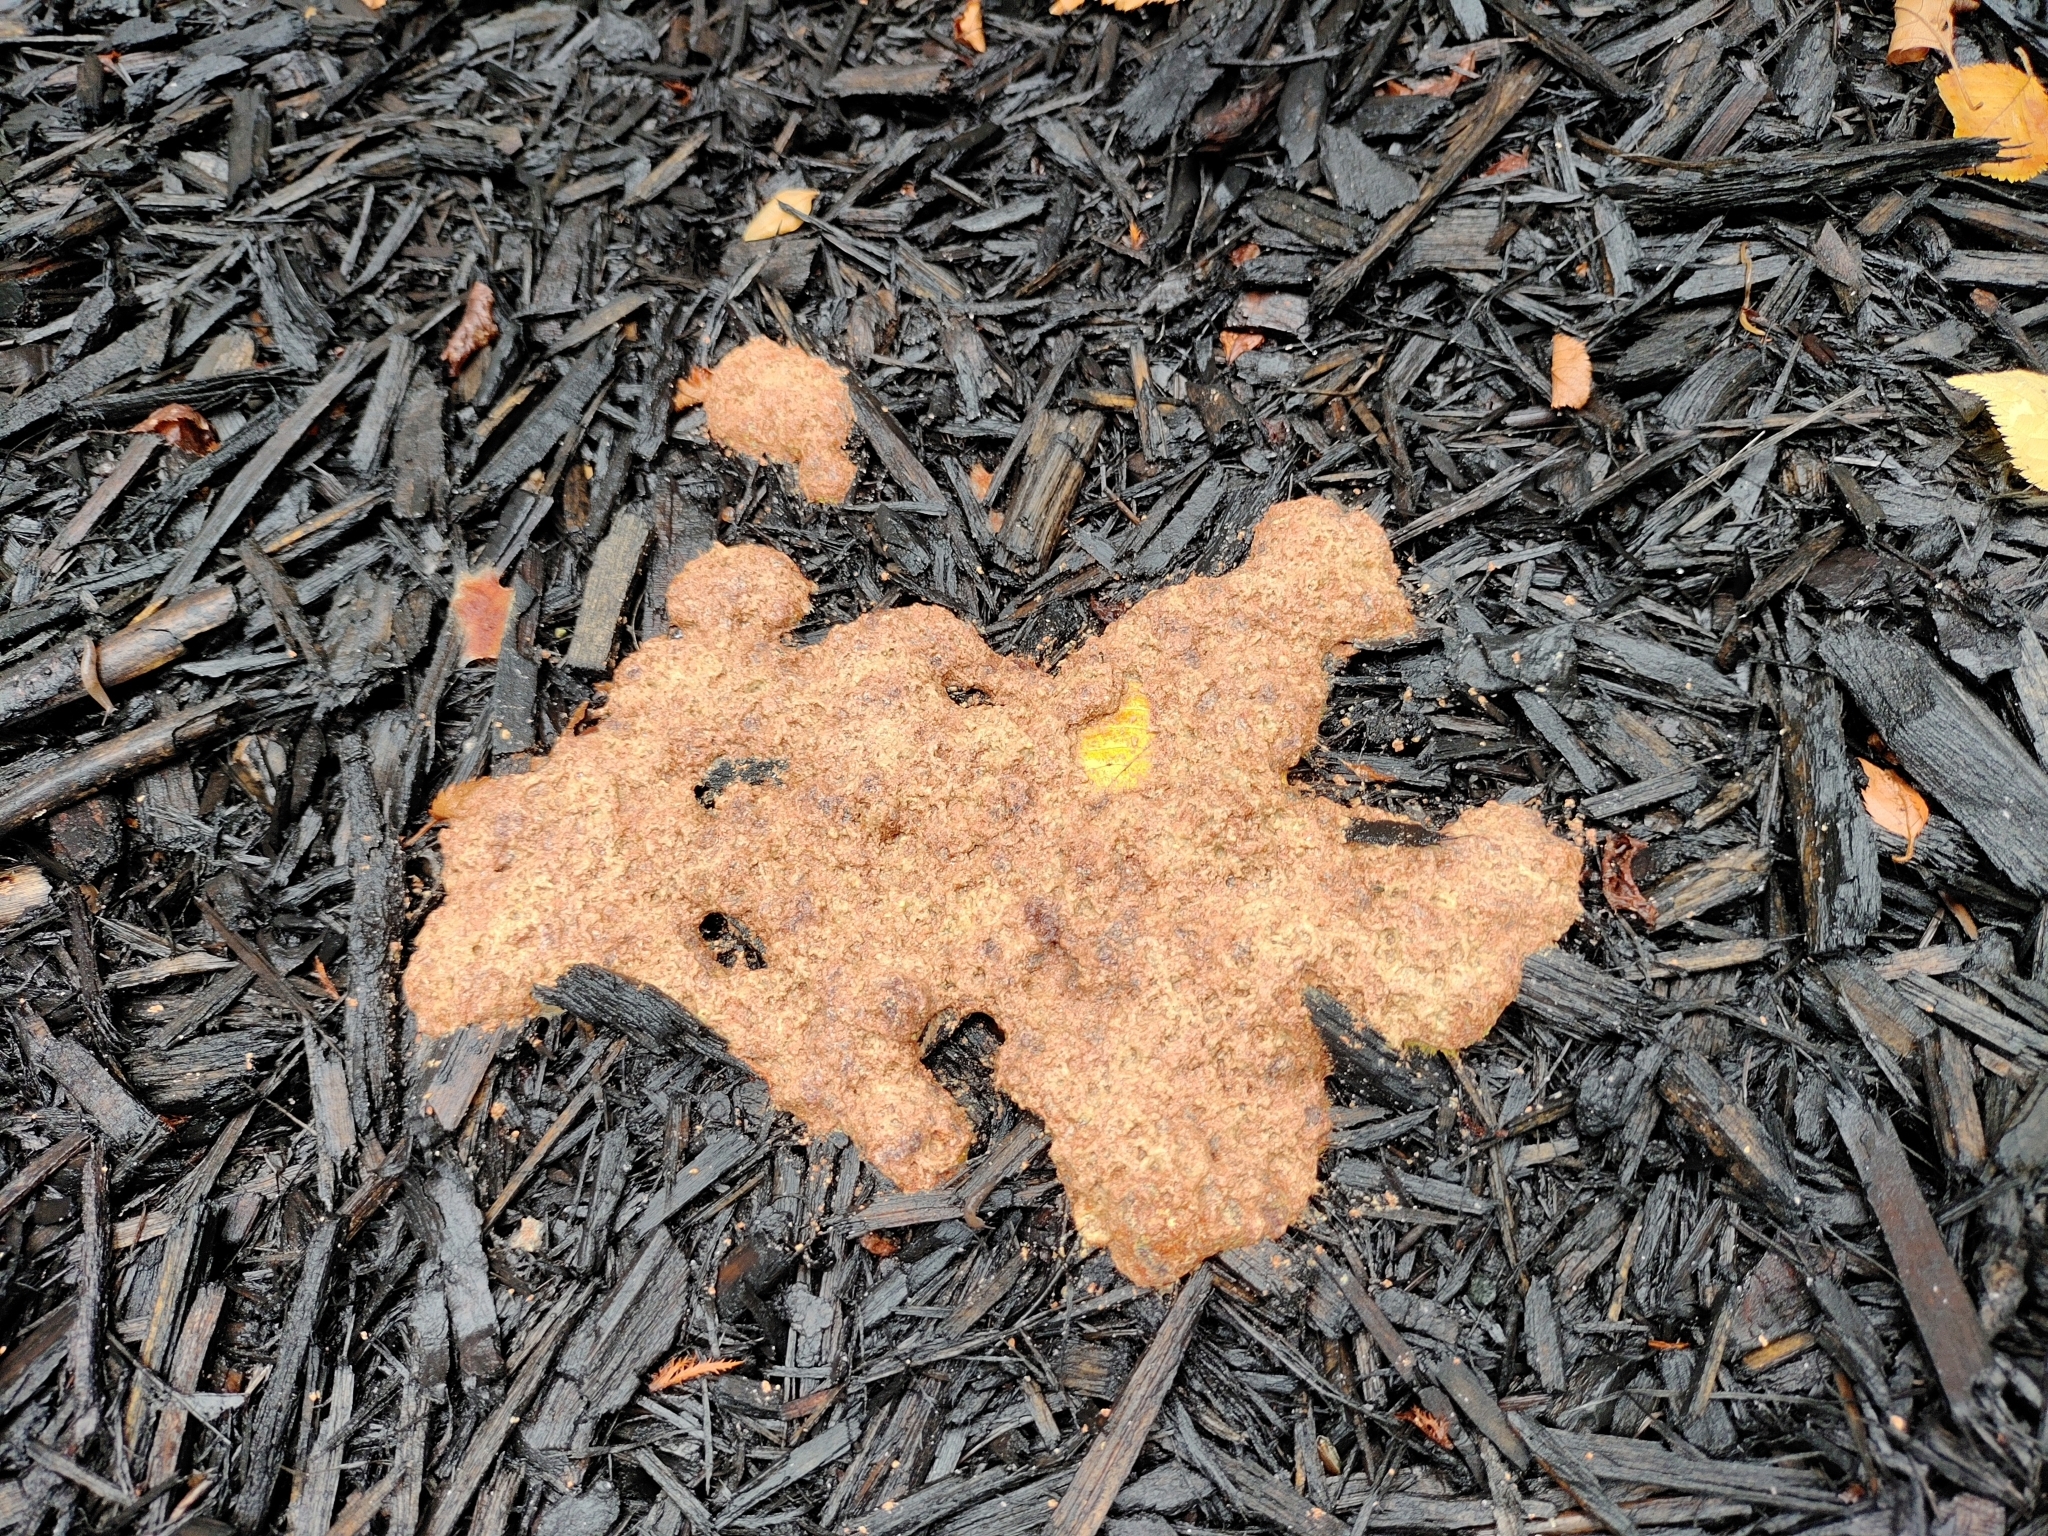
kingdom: Protozoa
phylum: Mycetozoa
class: Myxomycetes
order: Physarales
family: Physaraceae
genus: Fuligo
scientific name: Fuligo septica
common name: Dog vomit slime mold
